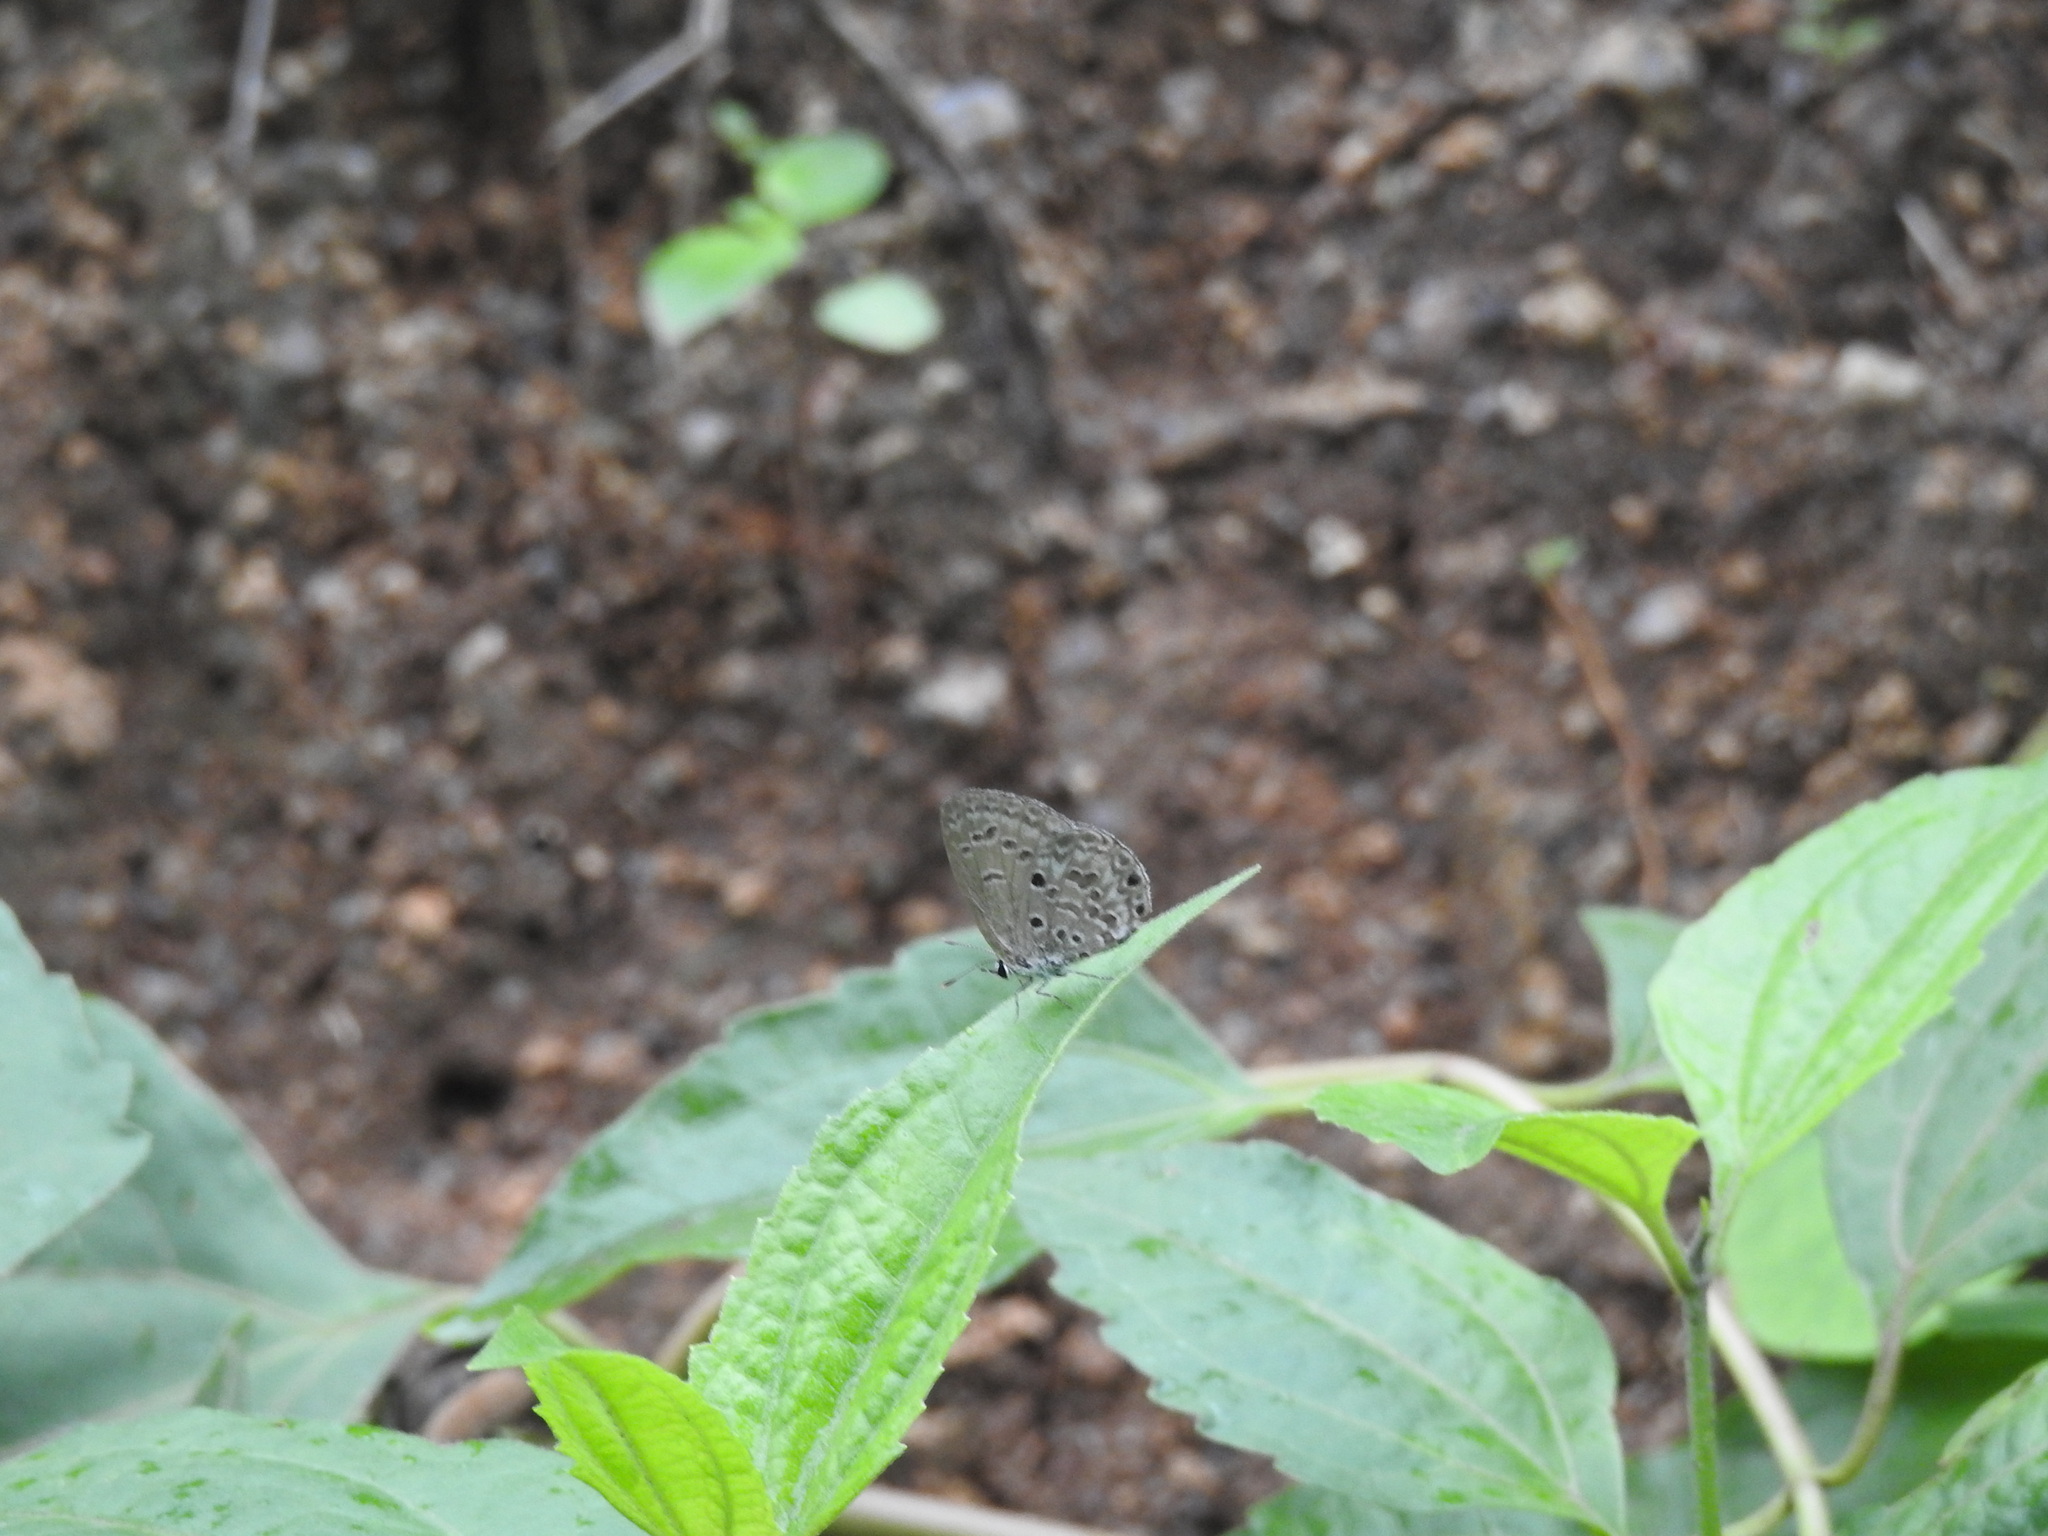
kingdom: Animalia
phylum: Arthropoda
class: Insecta
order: Lepidoptera
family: Lycaenidae
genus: Chilades
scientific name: Chilades laius
